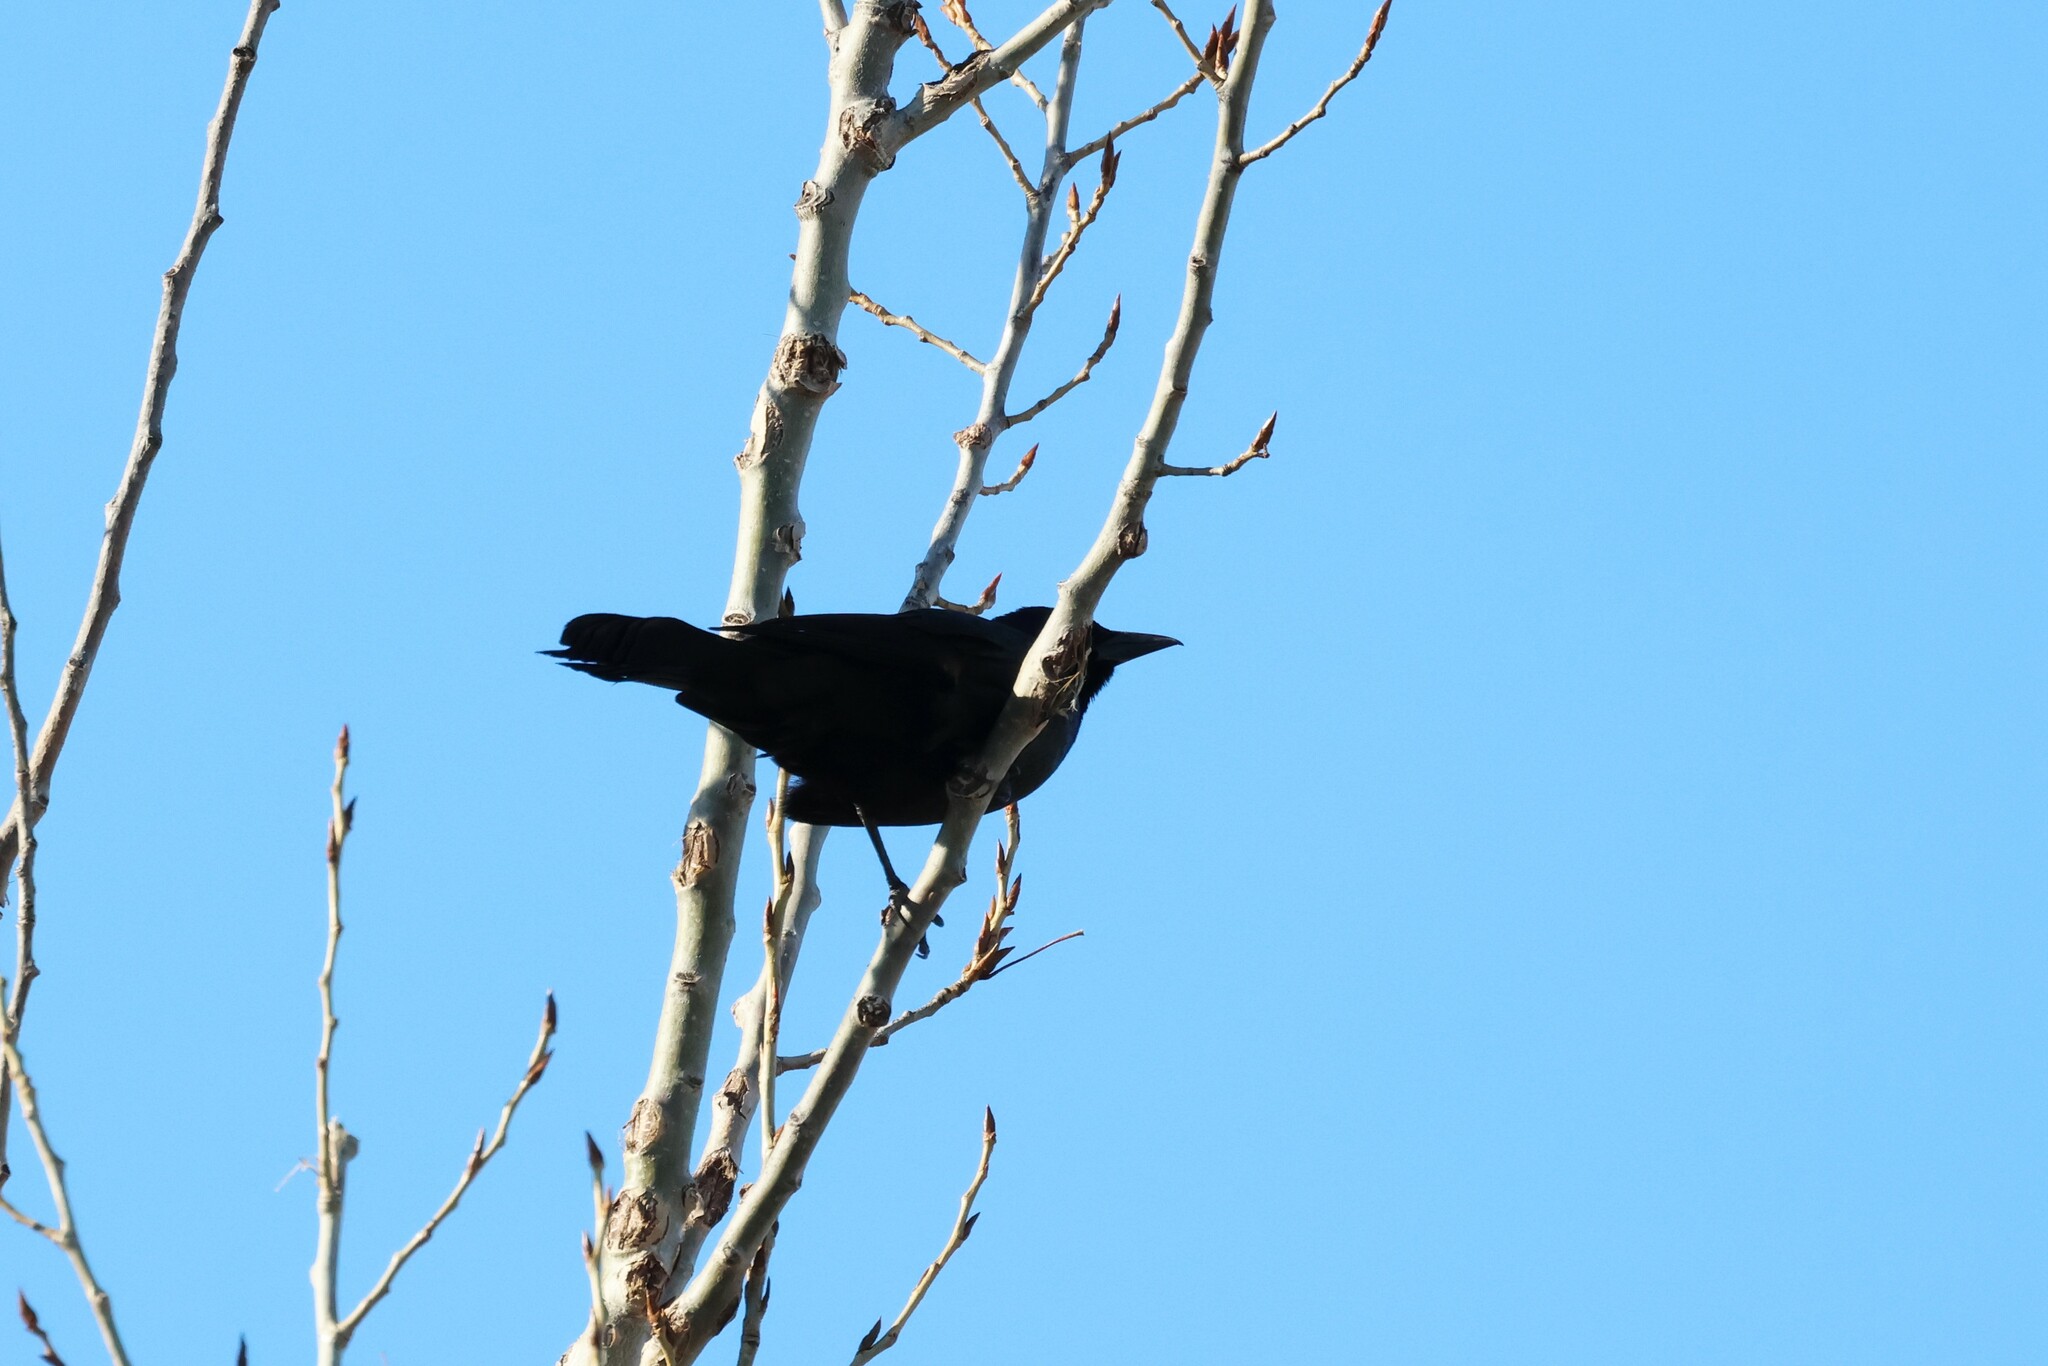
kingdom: Animalia
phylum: Chordata
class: Aves
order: Passeriformes
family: Icteridae
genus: Quiscalus
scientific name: Quiscalus quiscula
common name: Common grackle
